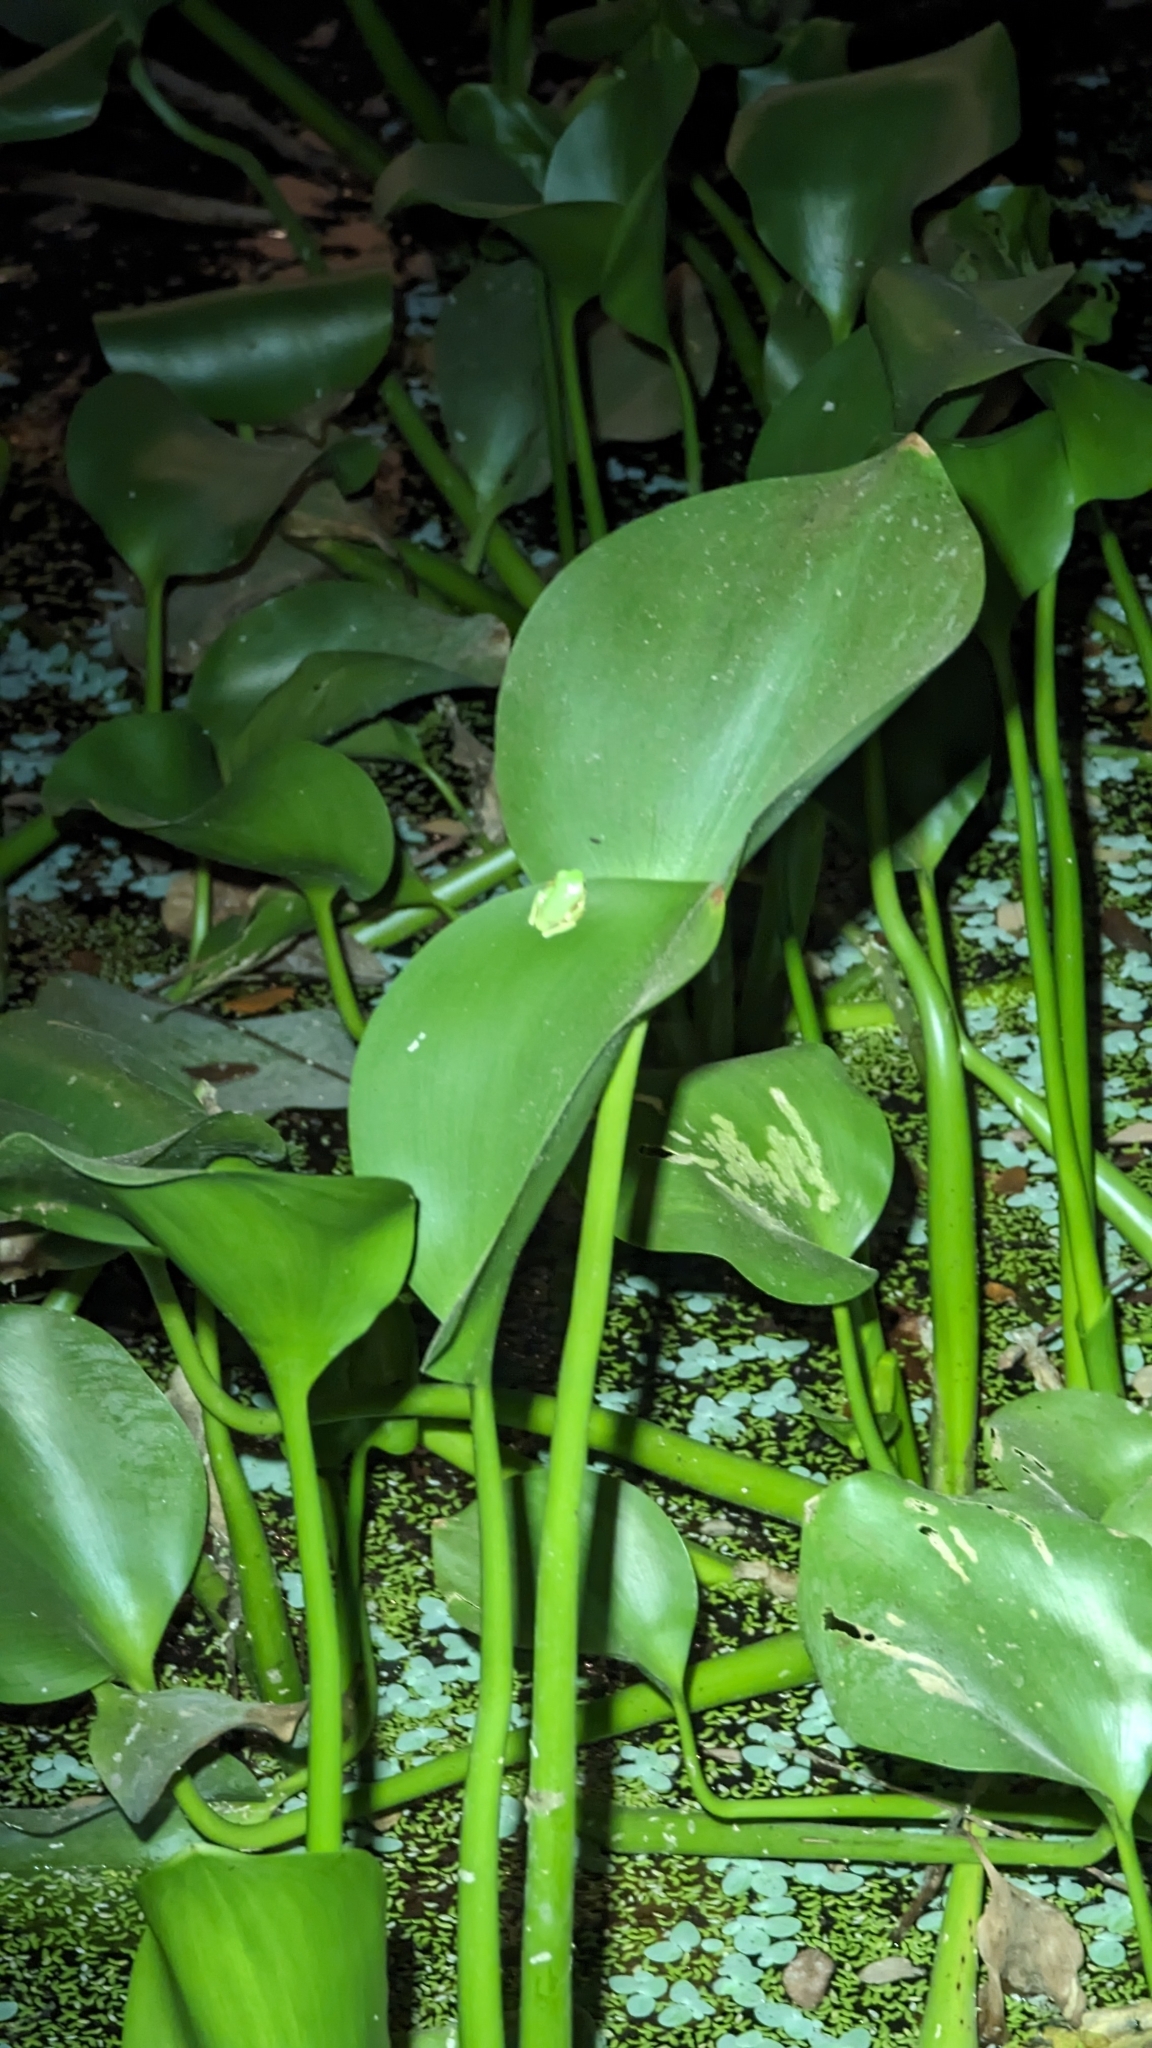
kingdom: Animalia
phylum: Chordata
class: Amphibia
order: Anura
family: Phyllomedusidae
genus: Agalychnis
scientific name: Agalychnis callidryas
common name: Red-eyed treefrog
